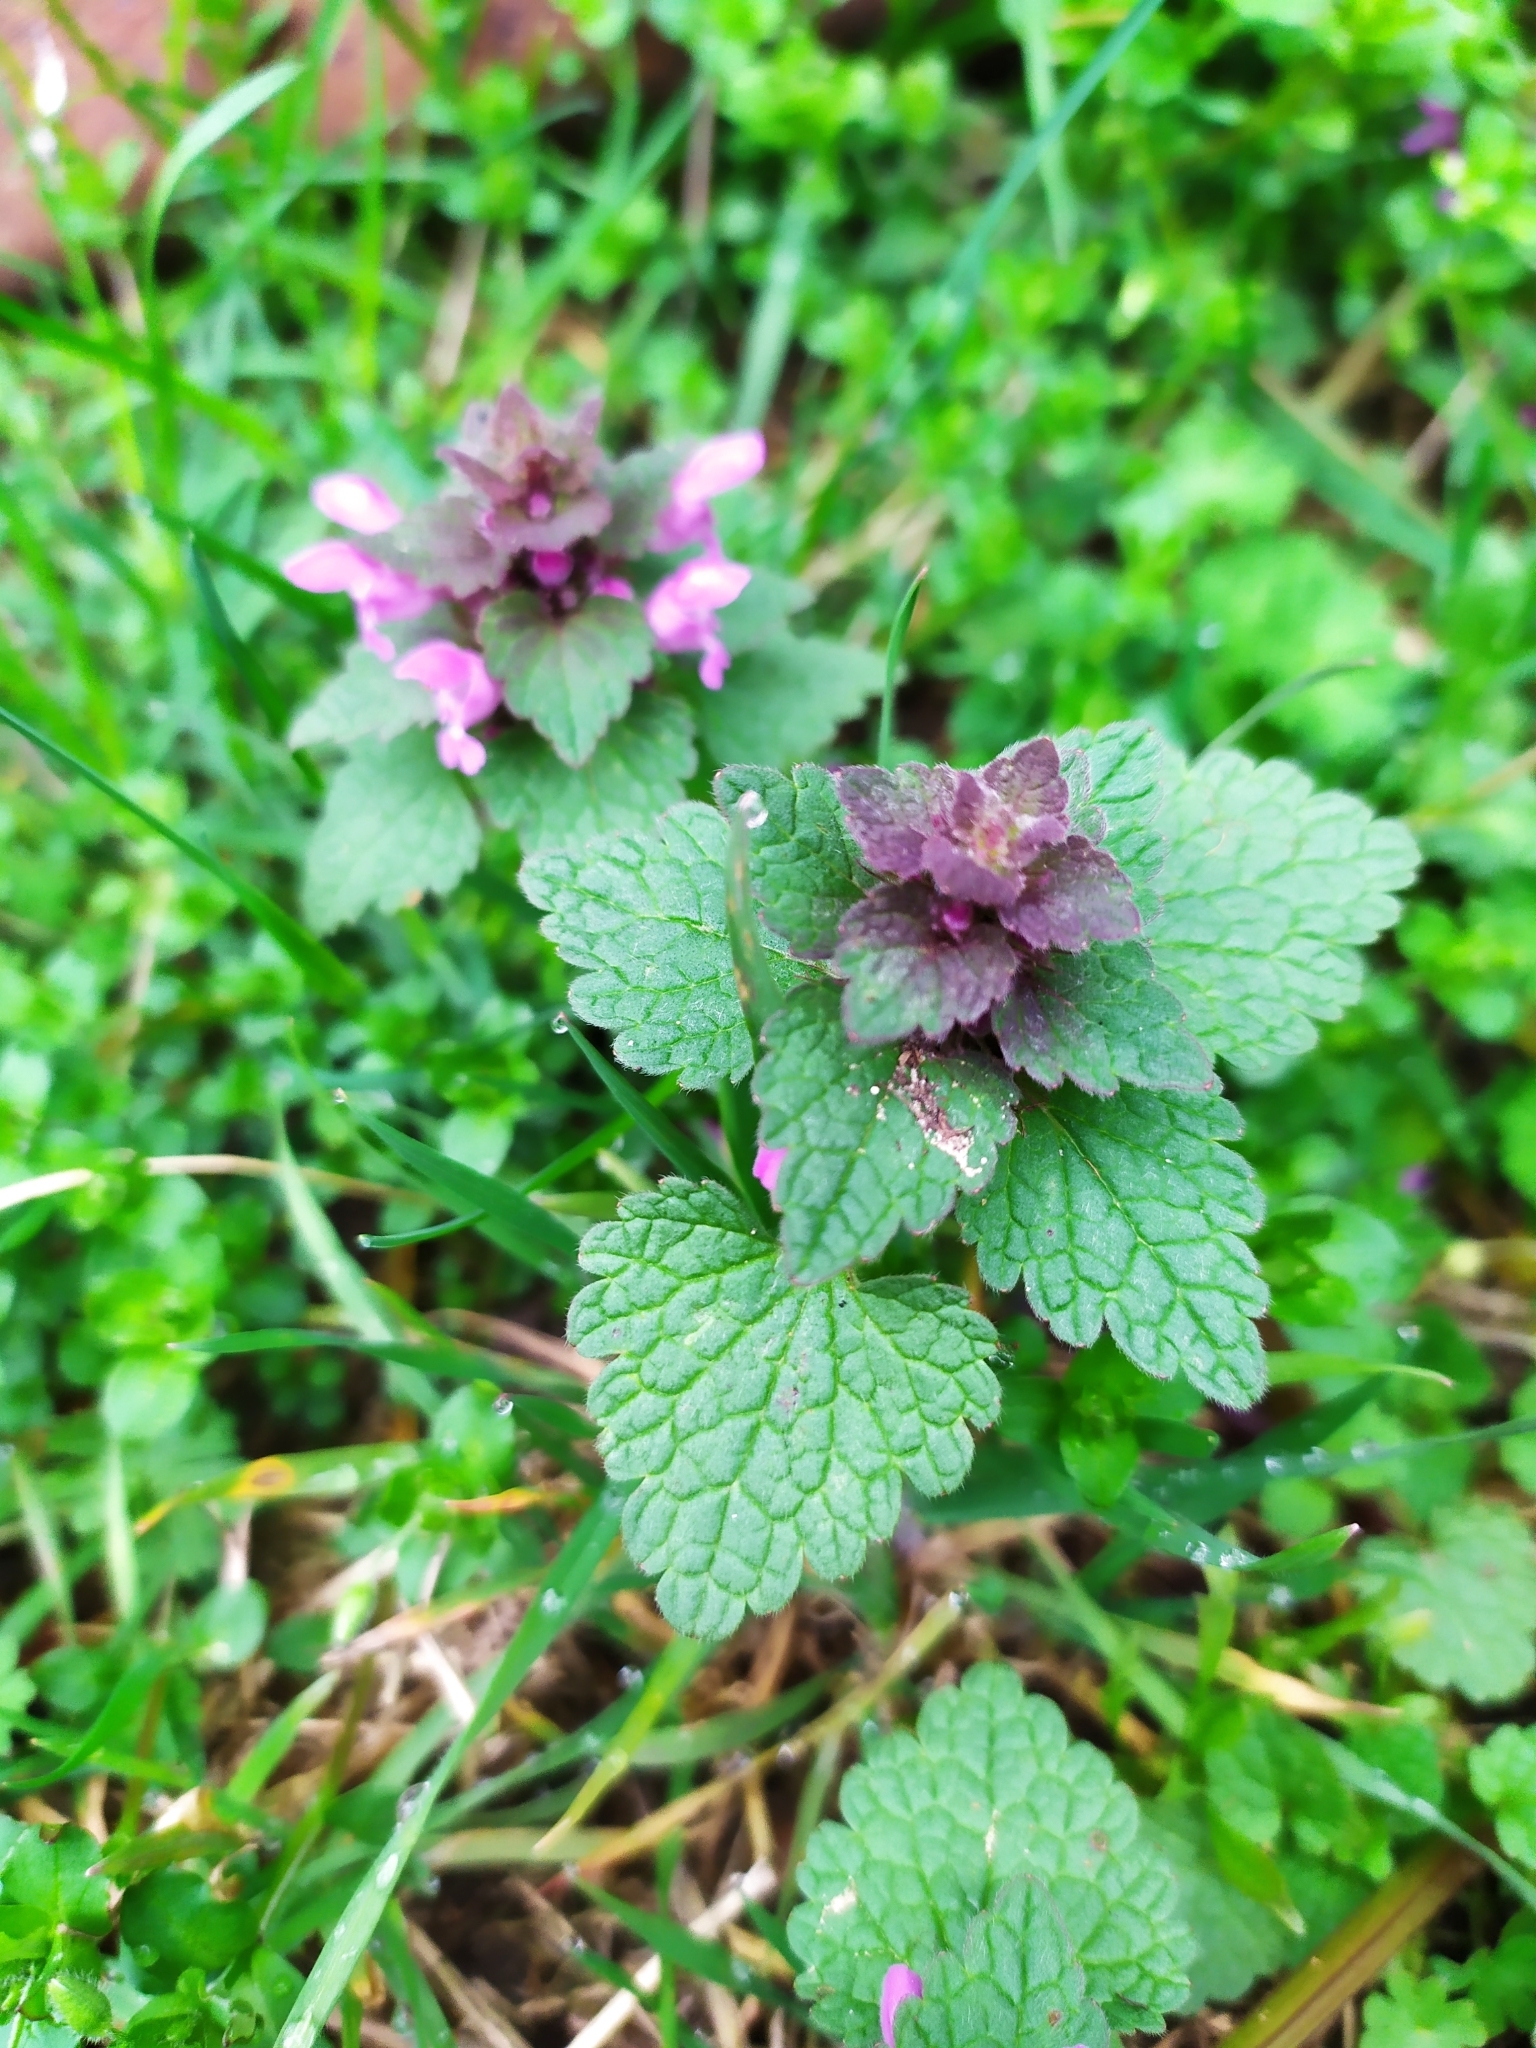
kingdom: Plantae
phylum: Tracheophyta
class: Magnoliopsida
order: Lamiales
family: Lamiaceae
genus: Lamium
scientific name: Lamium purpureum
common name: Red dead-nettle
